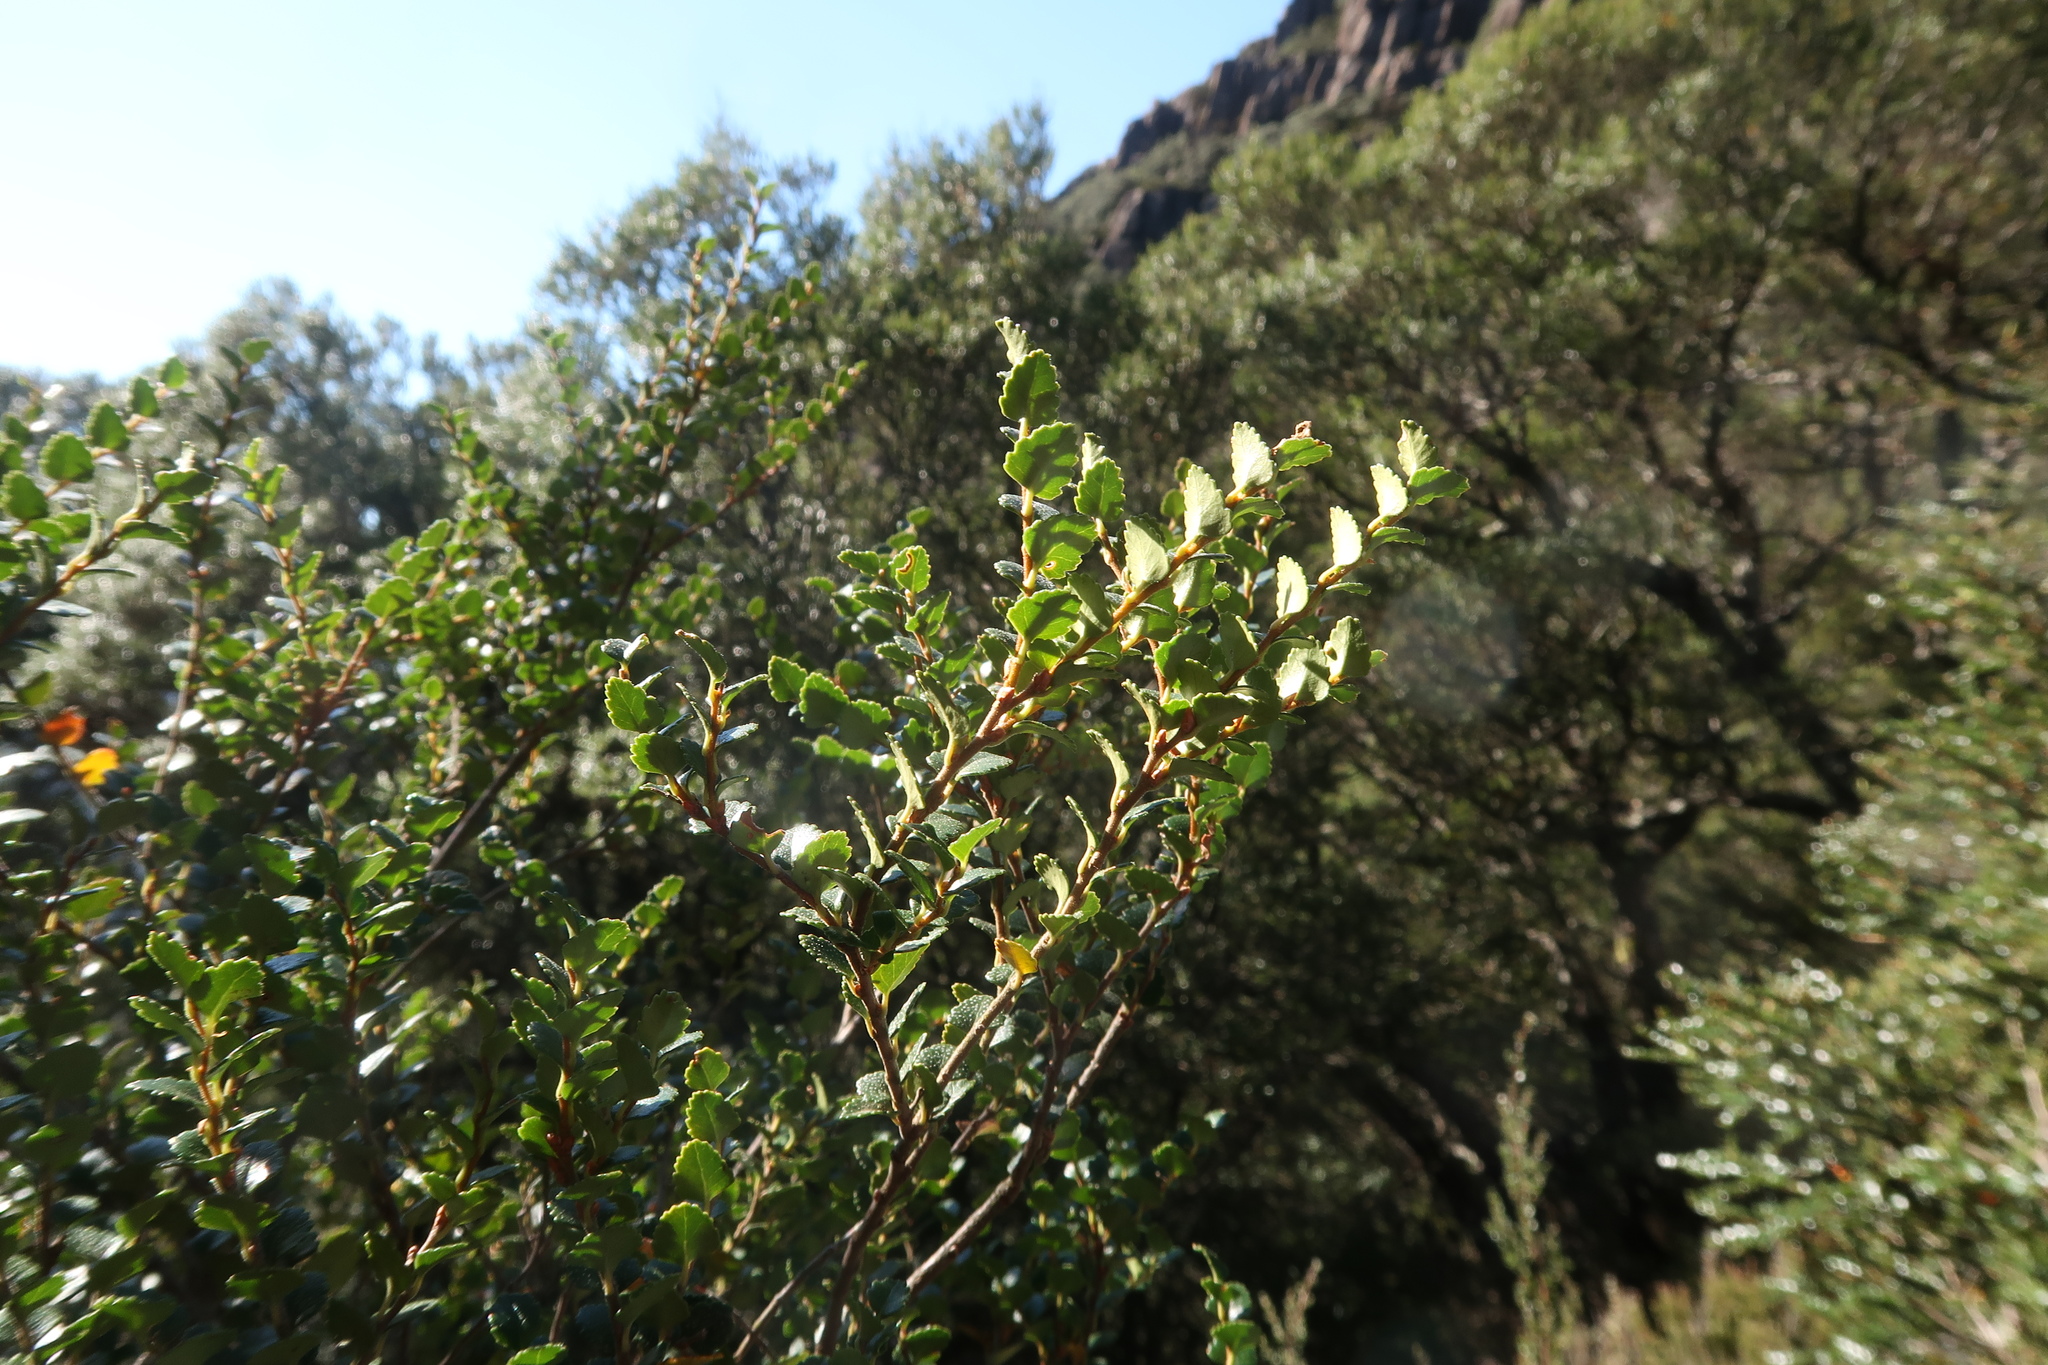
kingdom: Plantae
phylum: Tracheophyta
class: Magnoliopsida
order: Fagales
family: Nothofagaceae
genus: Nothofagus
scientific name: Nothofagus cunninghamii
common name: Myrtle beech
